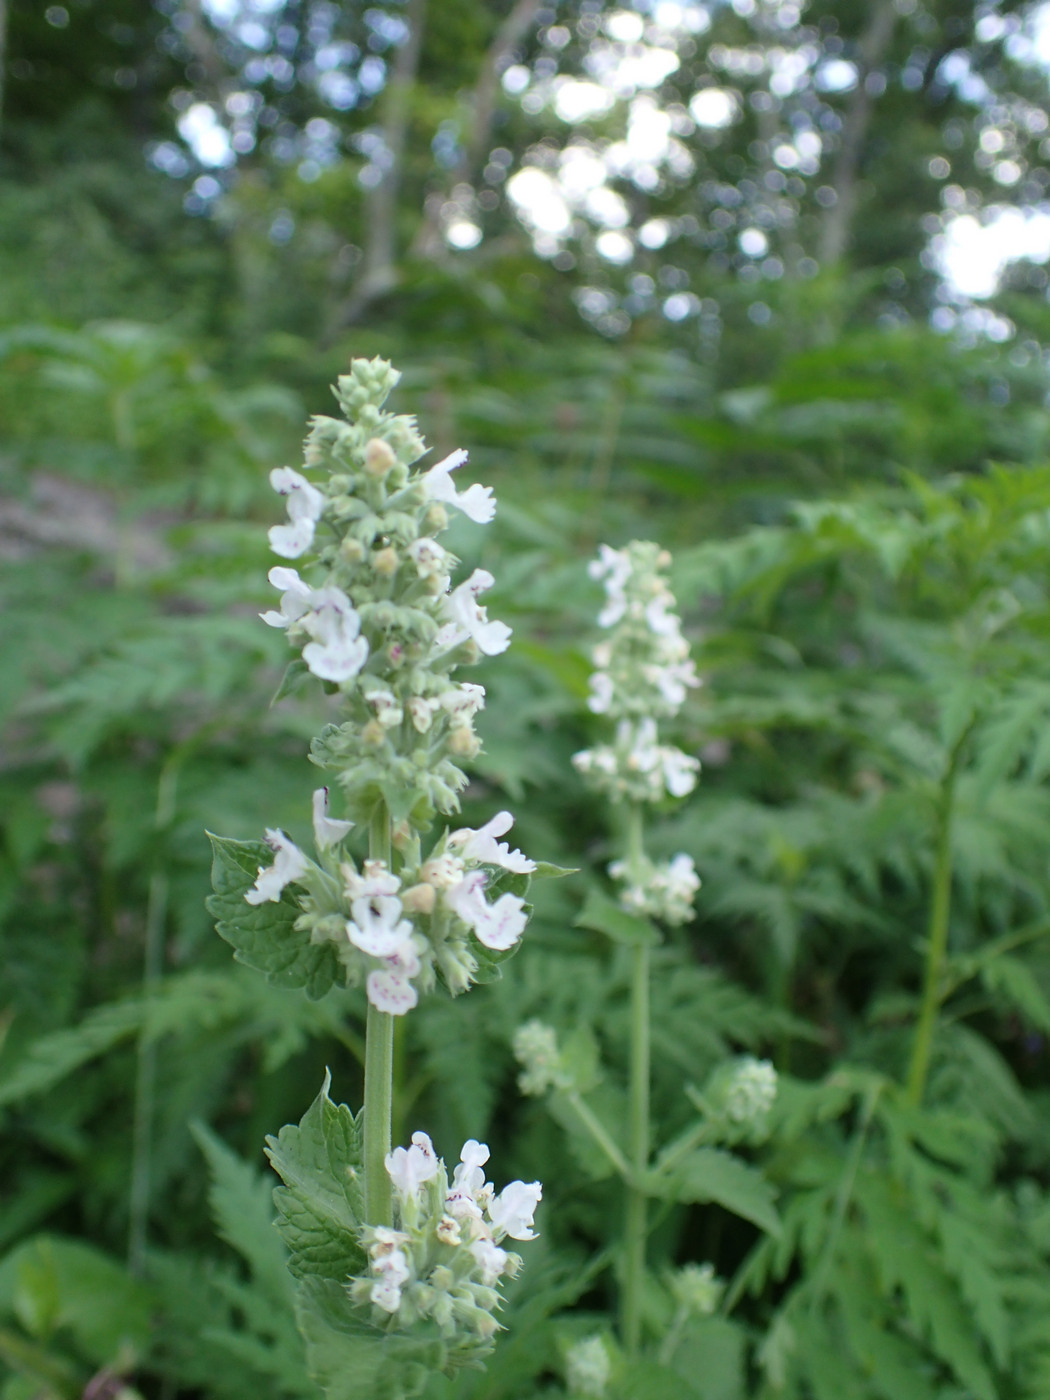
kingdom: Plantae
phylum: Tracheophyta
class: Magnoliopsida
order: Lamiales
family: Lamiaceae
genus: Nepeta
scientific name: Nepeta cataria
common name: Catnip
